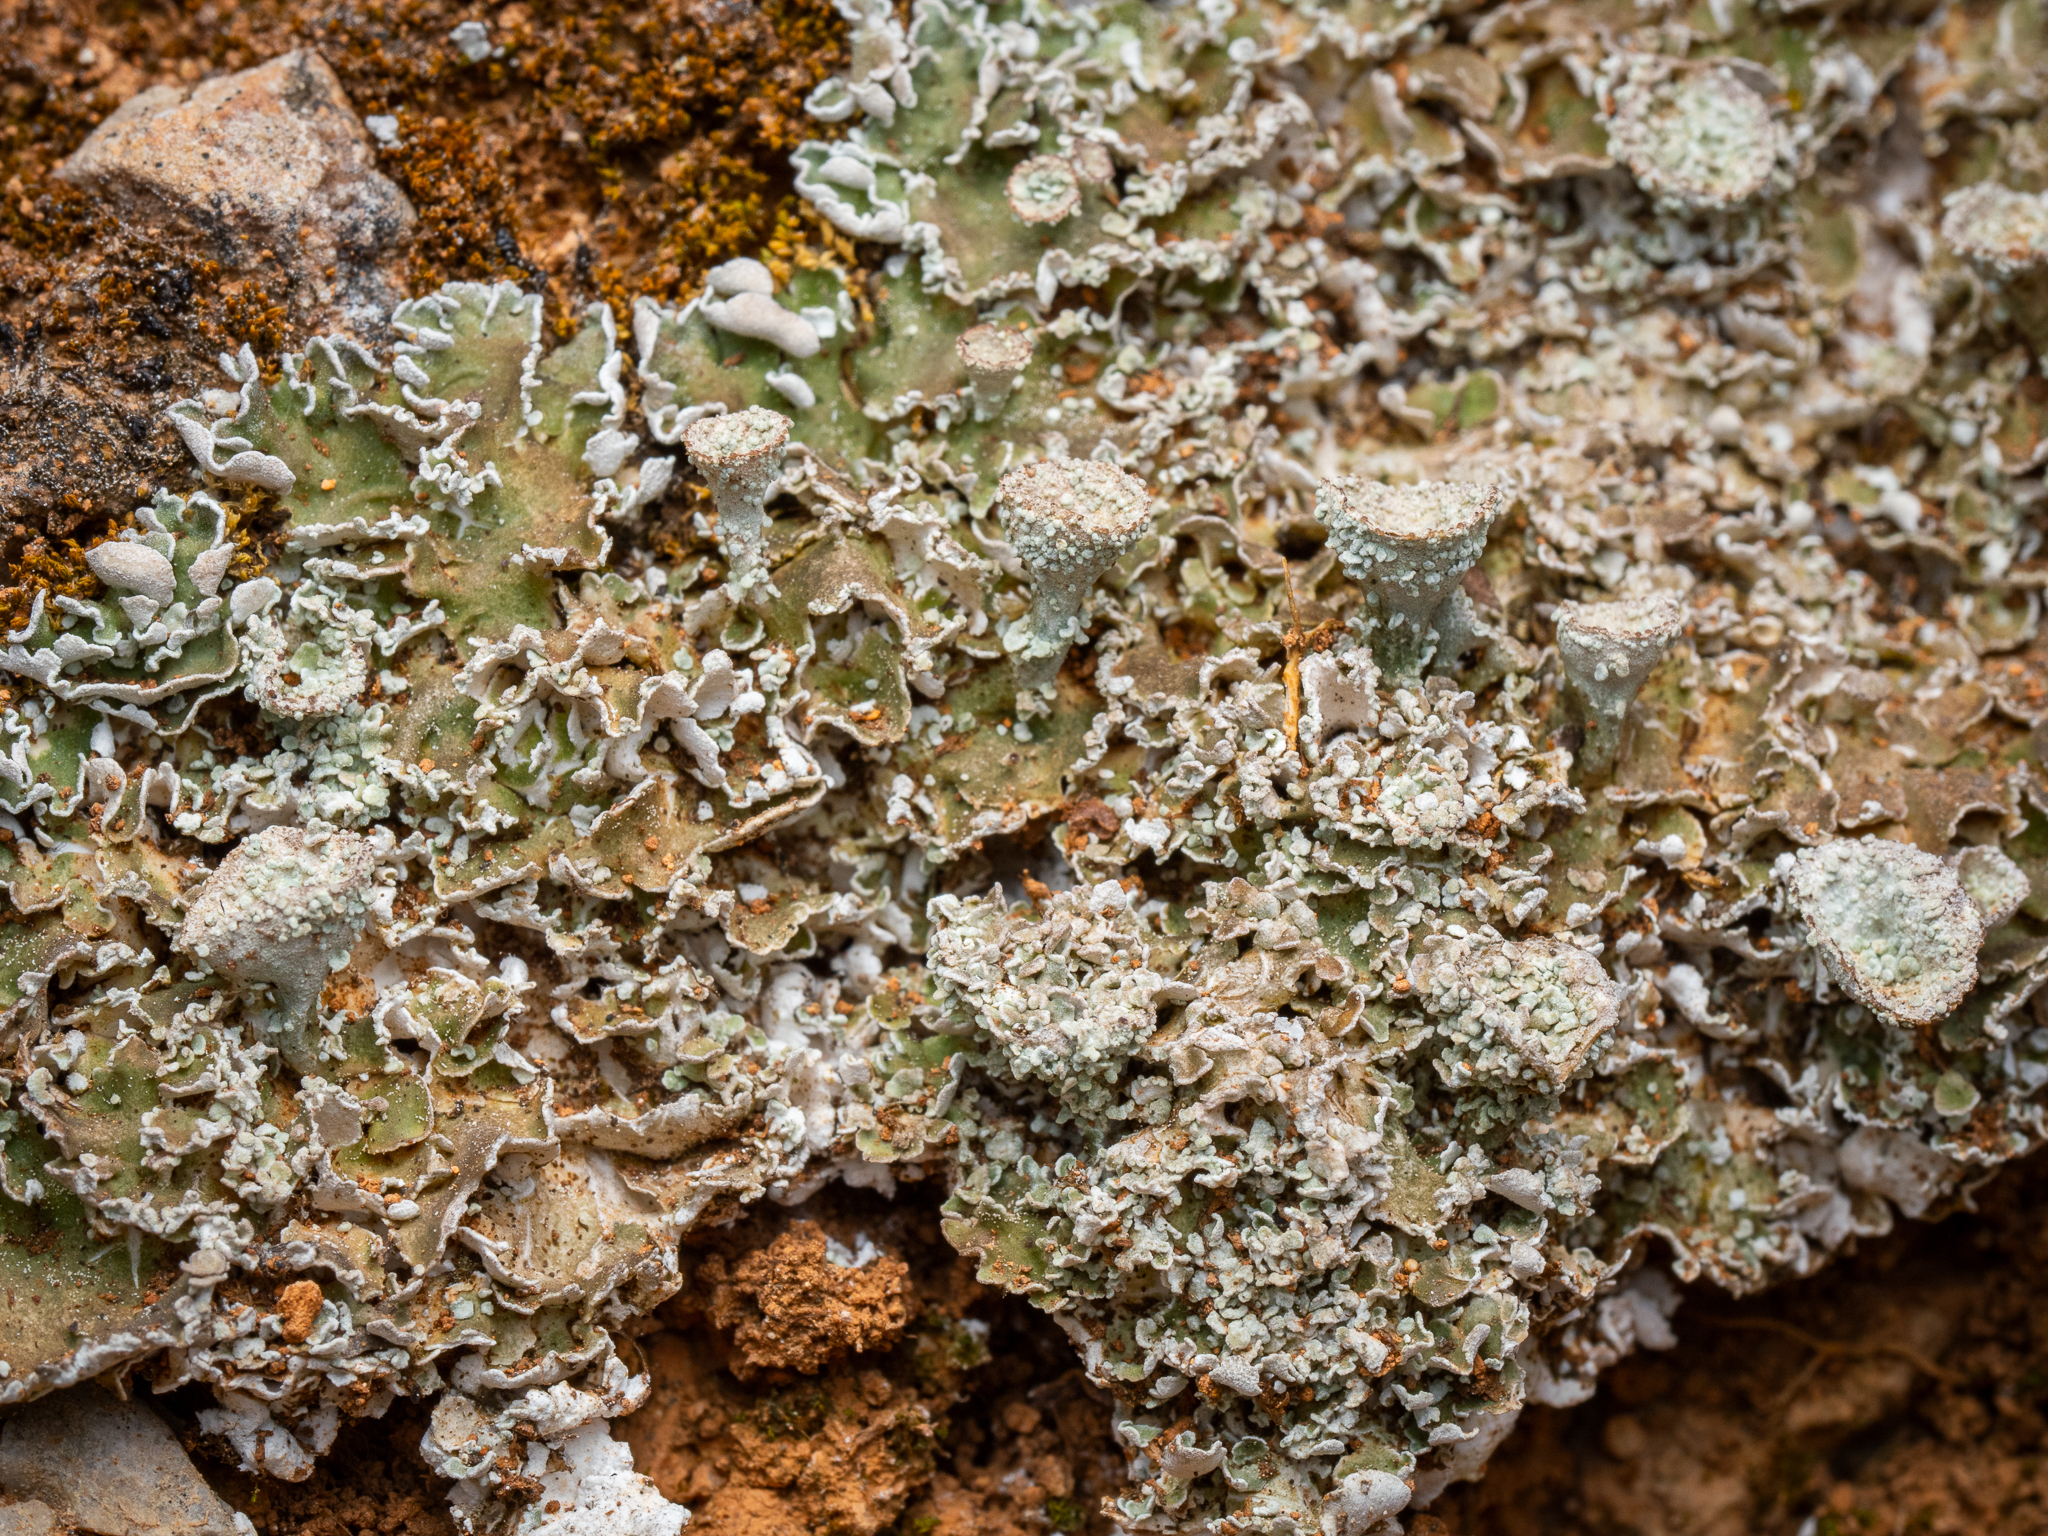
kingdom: Fungi
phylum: Ascomycota
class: Lecanoromycetes
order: Lecanorales
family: Cladoniaceae
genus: Cladonia
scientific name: Cladonia pocillum
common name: Rosette pixie-cup lichen
